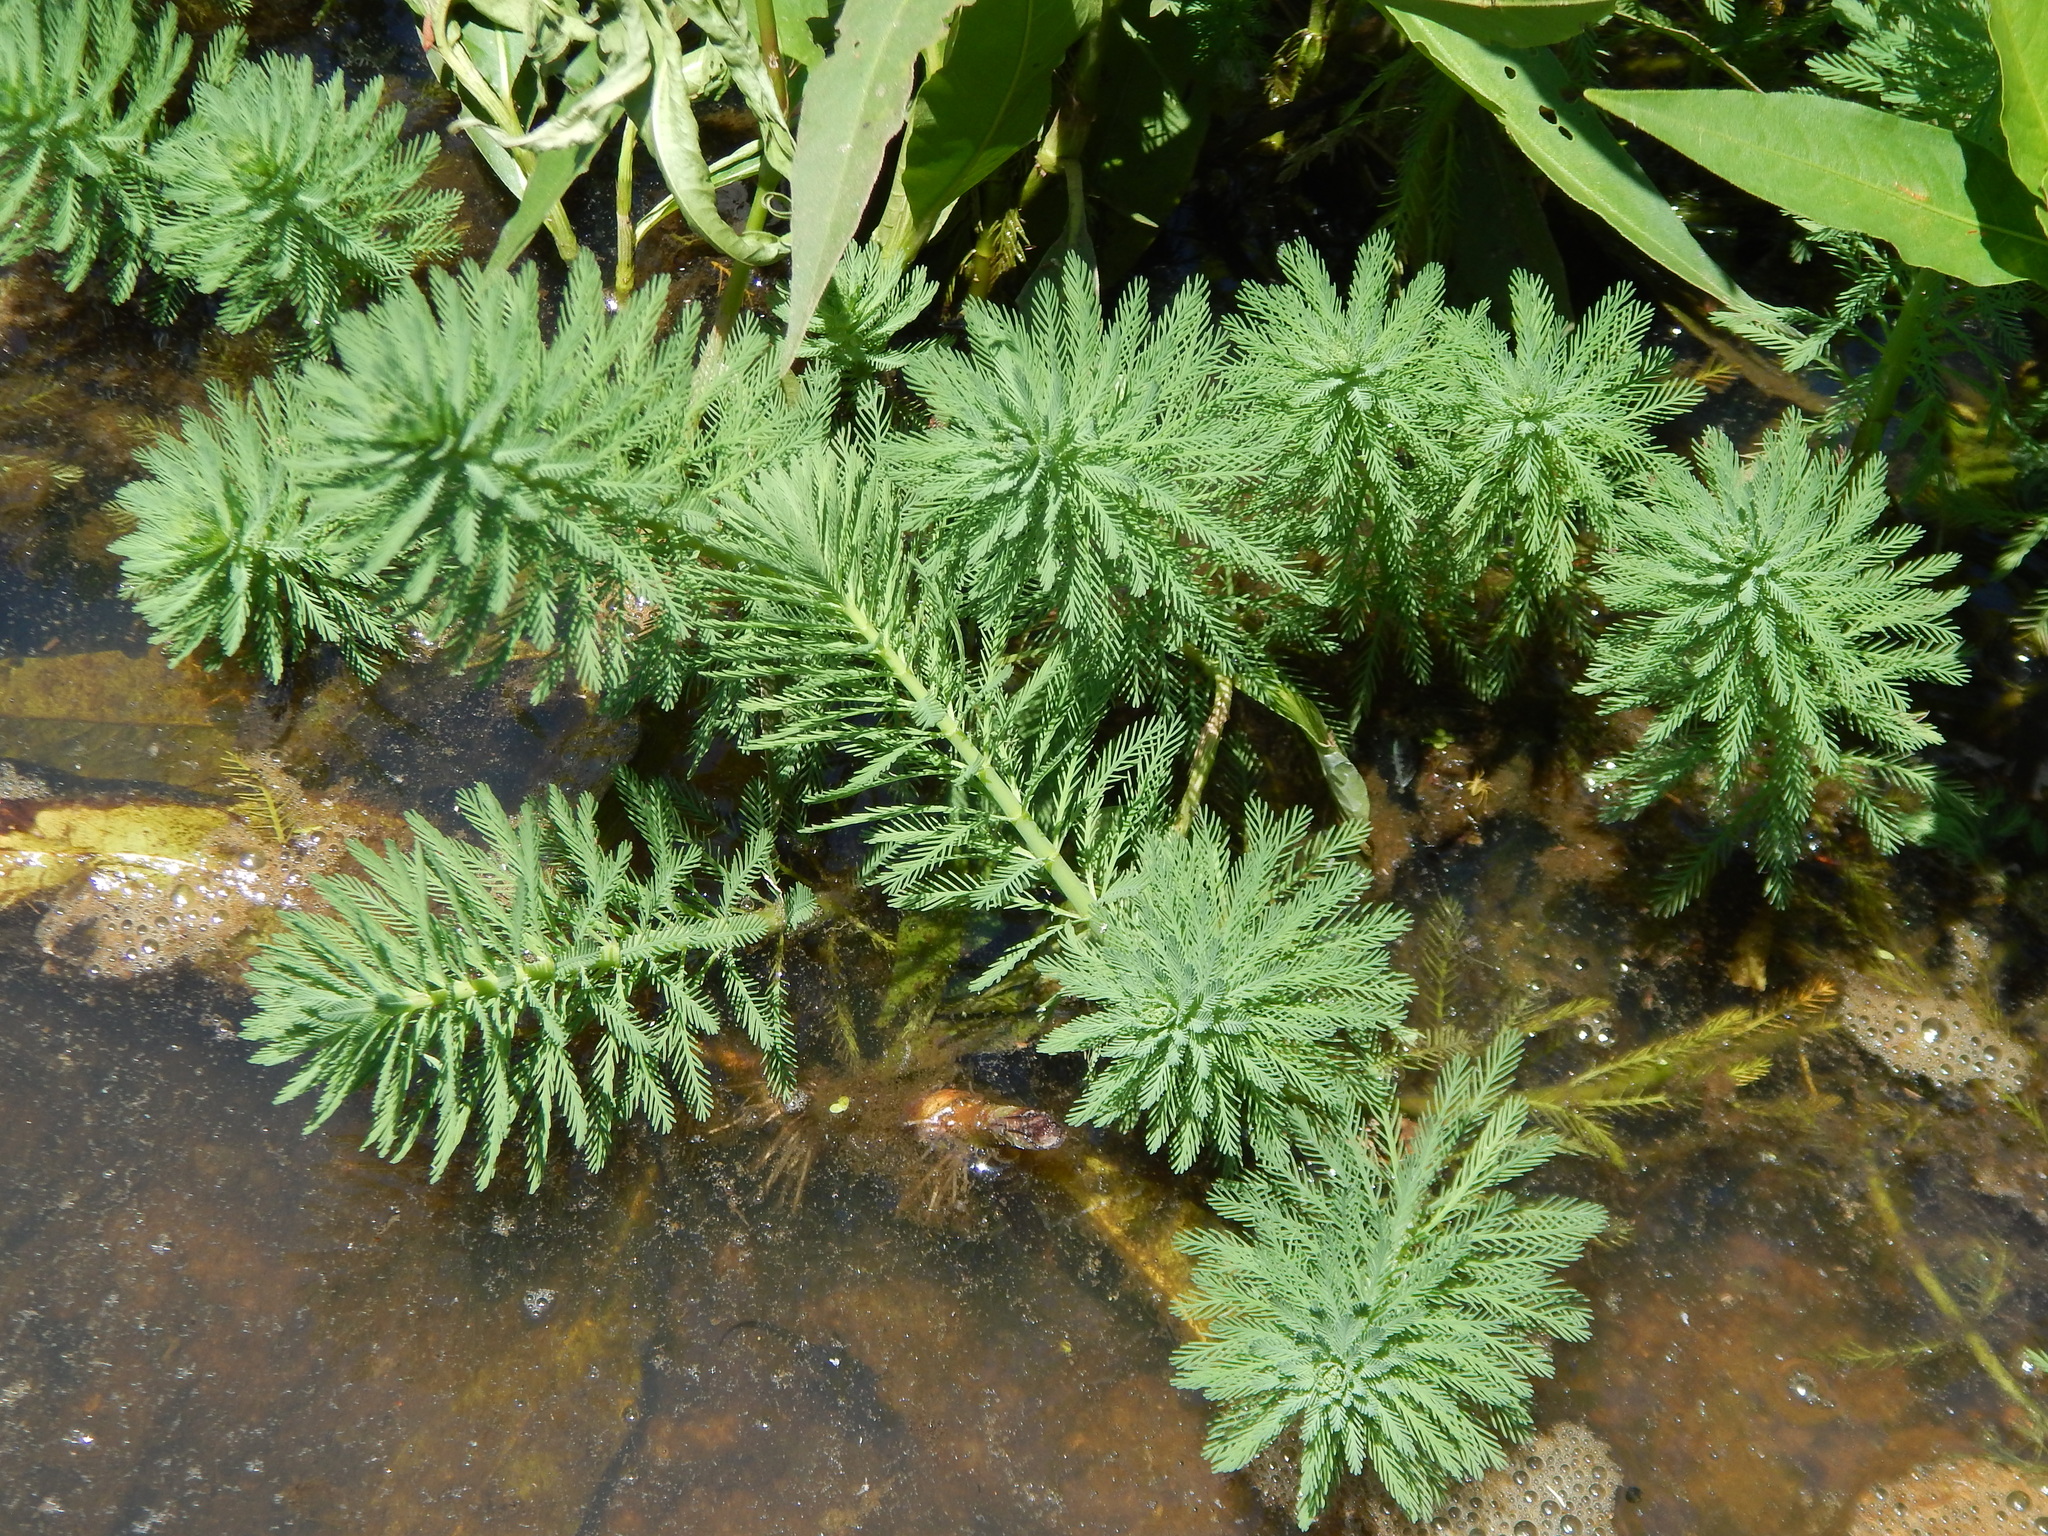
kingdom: Plantae
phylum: Tracheophyta
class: Magnoliopsida
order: Saxifragales
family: Haloragaceae
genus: Myriophyllum
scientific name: Myriophyllum aquaticum
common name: Parrot's feather
